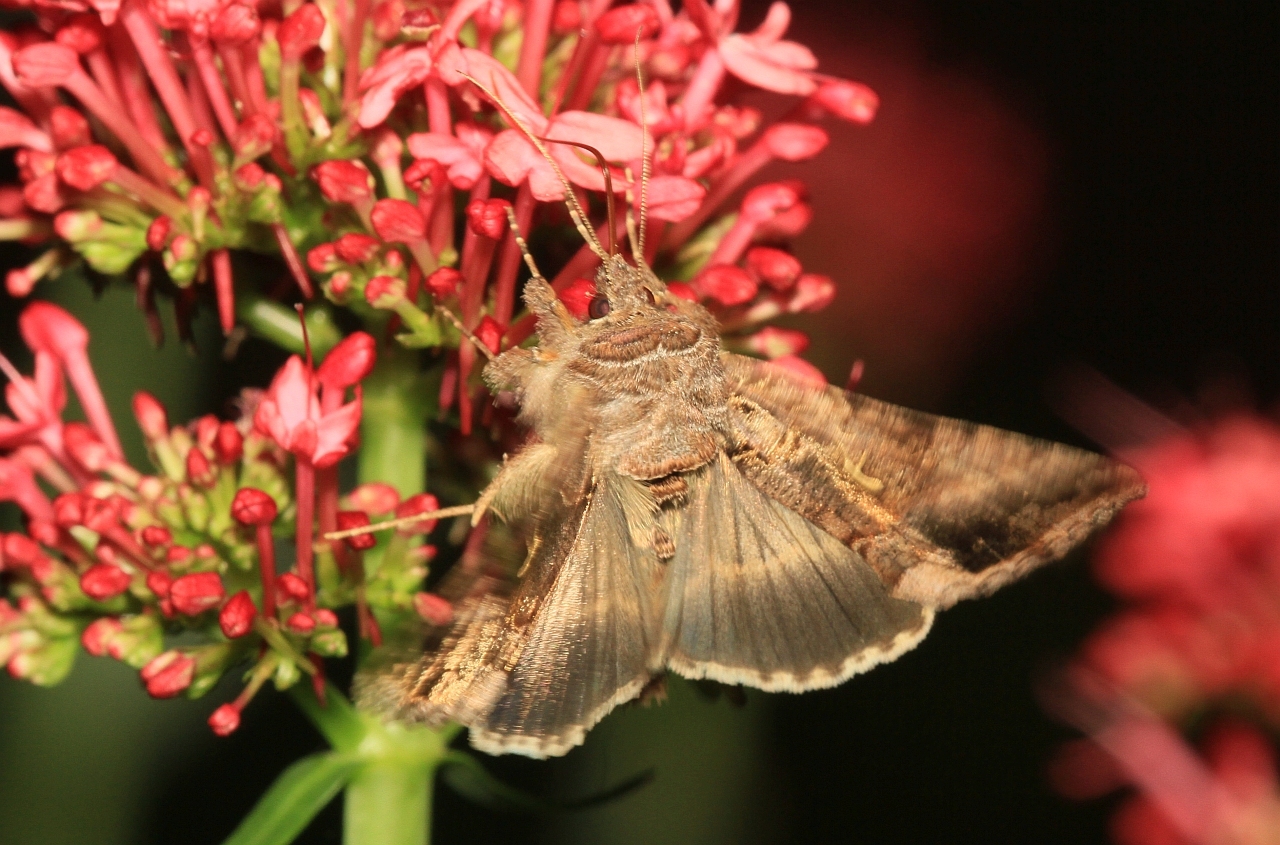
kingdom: Animalia
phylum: Arthropoda
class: Insecta
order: Lepidoptera
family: Noctuidae
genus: Autographa
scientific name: Autographa gamma
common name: Silver y
